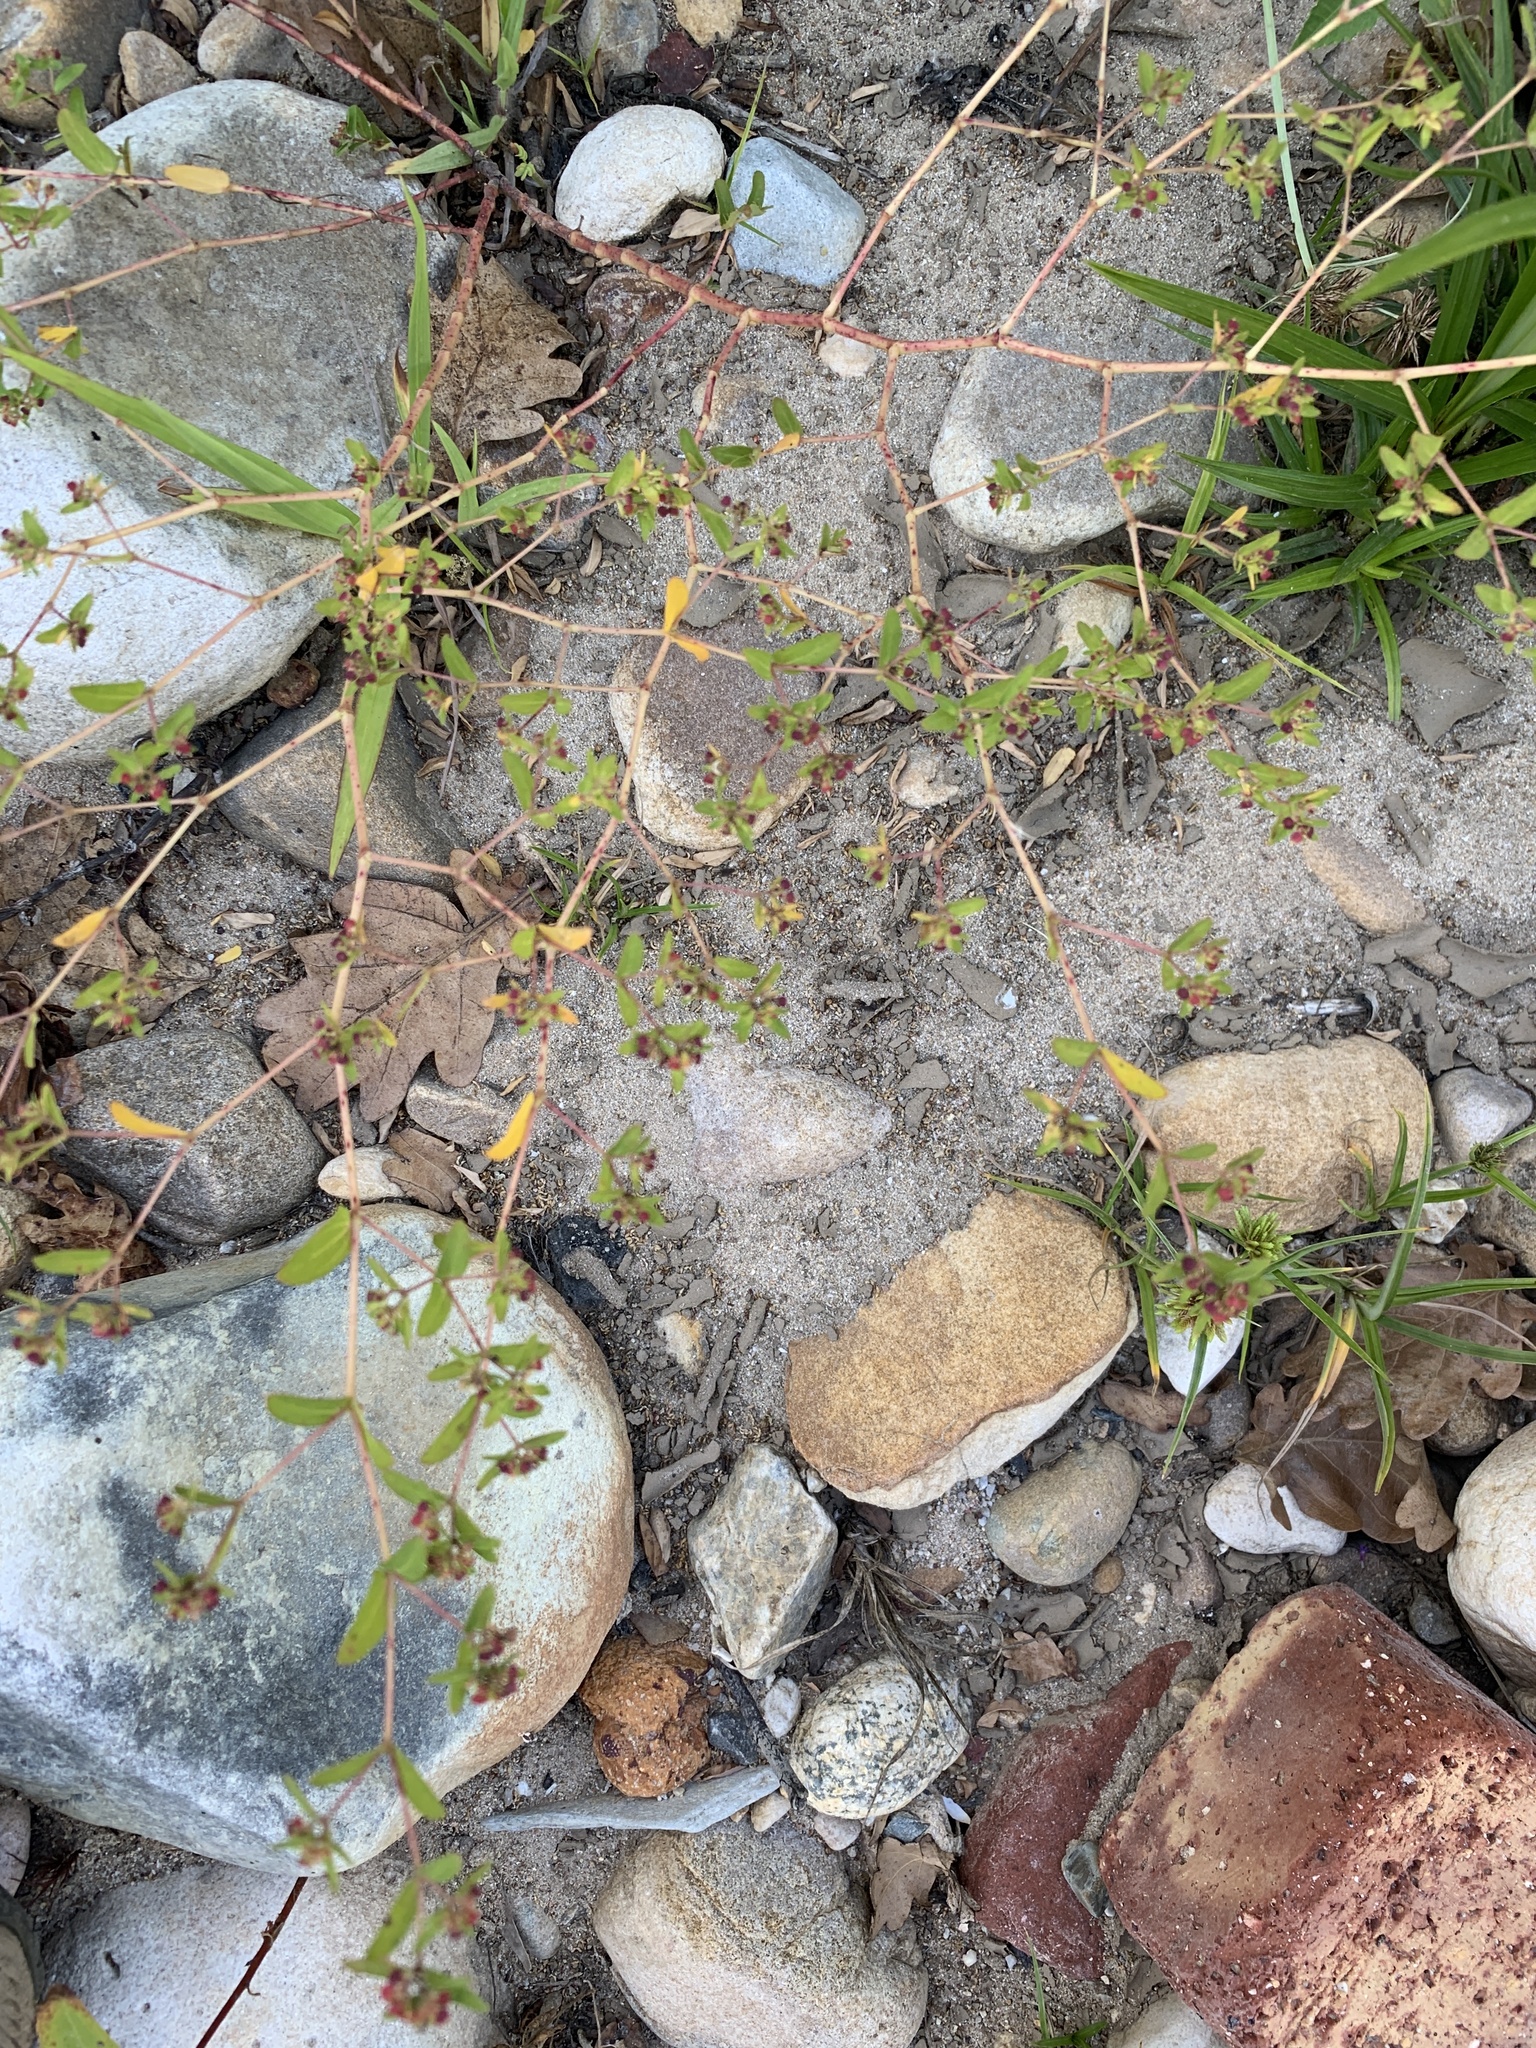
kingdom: Plantae
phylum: Tracheophyta
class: Magnoliopsida
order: Malpighiales
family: Euphorbiaceae
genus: Euphorbia
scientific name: Euphorbia nutans
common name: Eyebane
